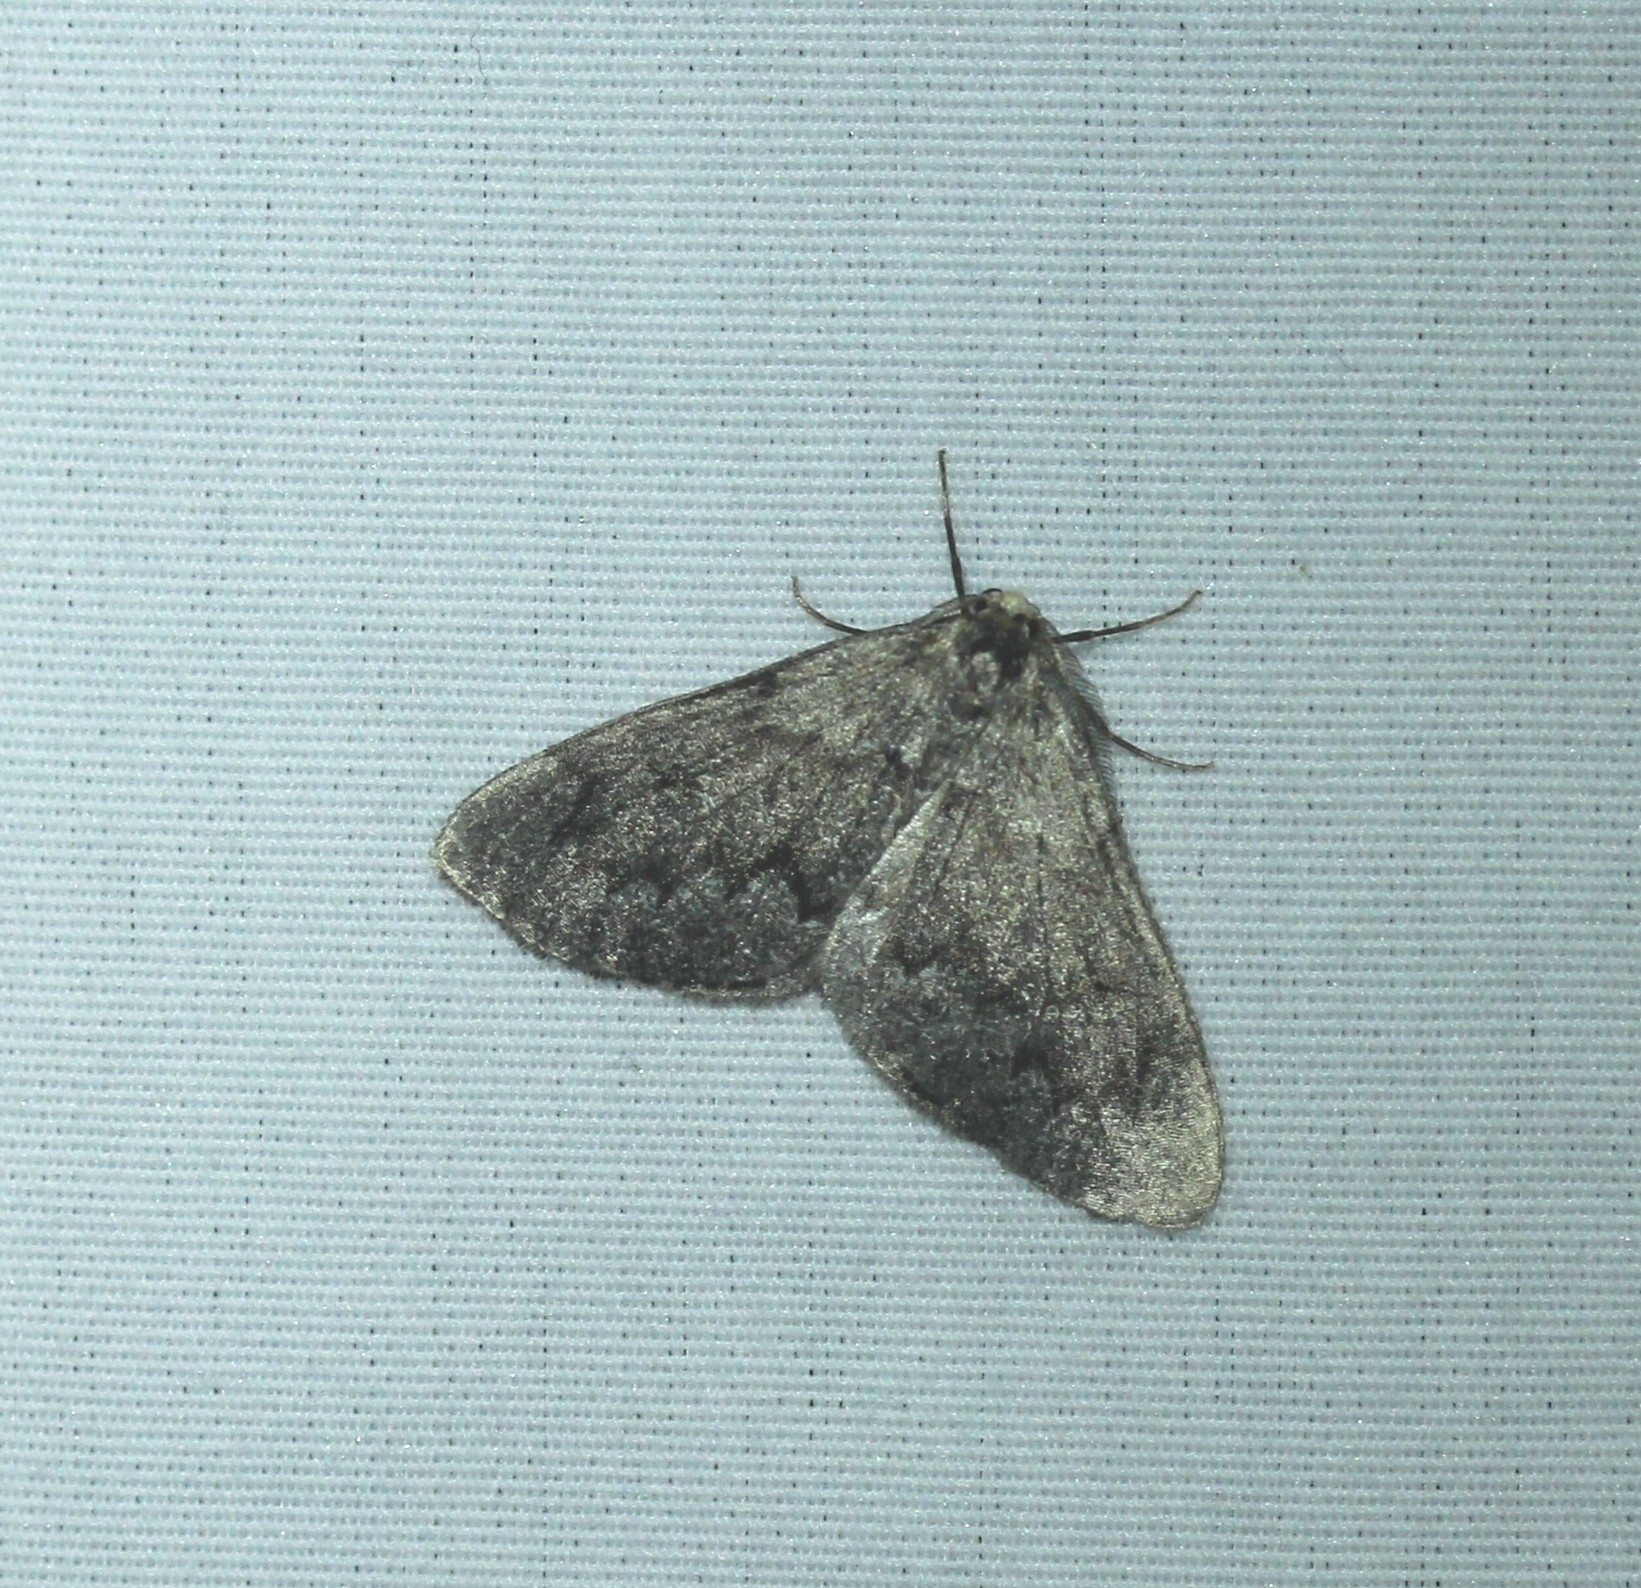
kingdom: Animalia
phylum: Arthropoda
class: Insecta
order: Lepidoptera
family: Geometridae
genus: Nepytia
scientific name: Nepytia canosaria
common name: False hemlock looper
